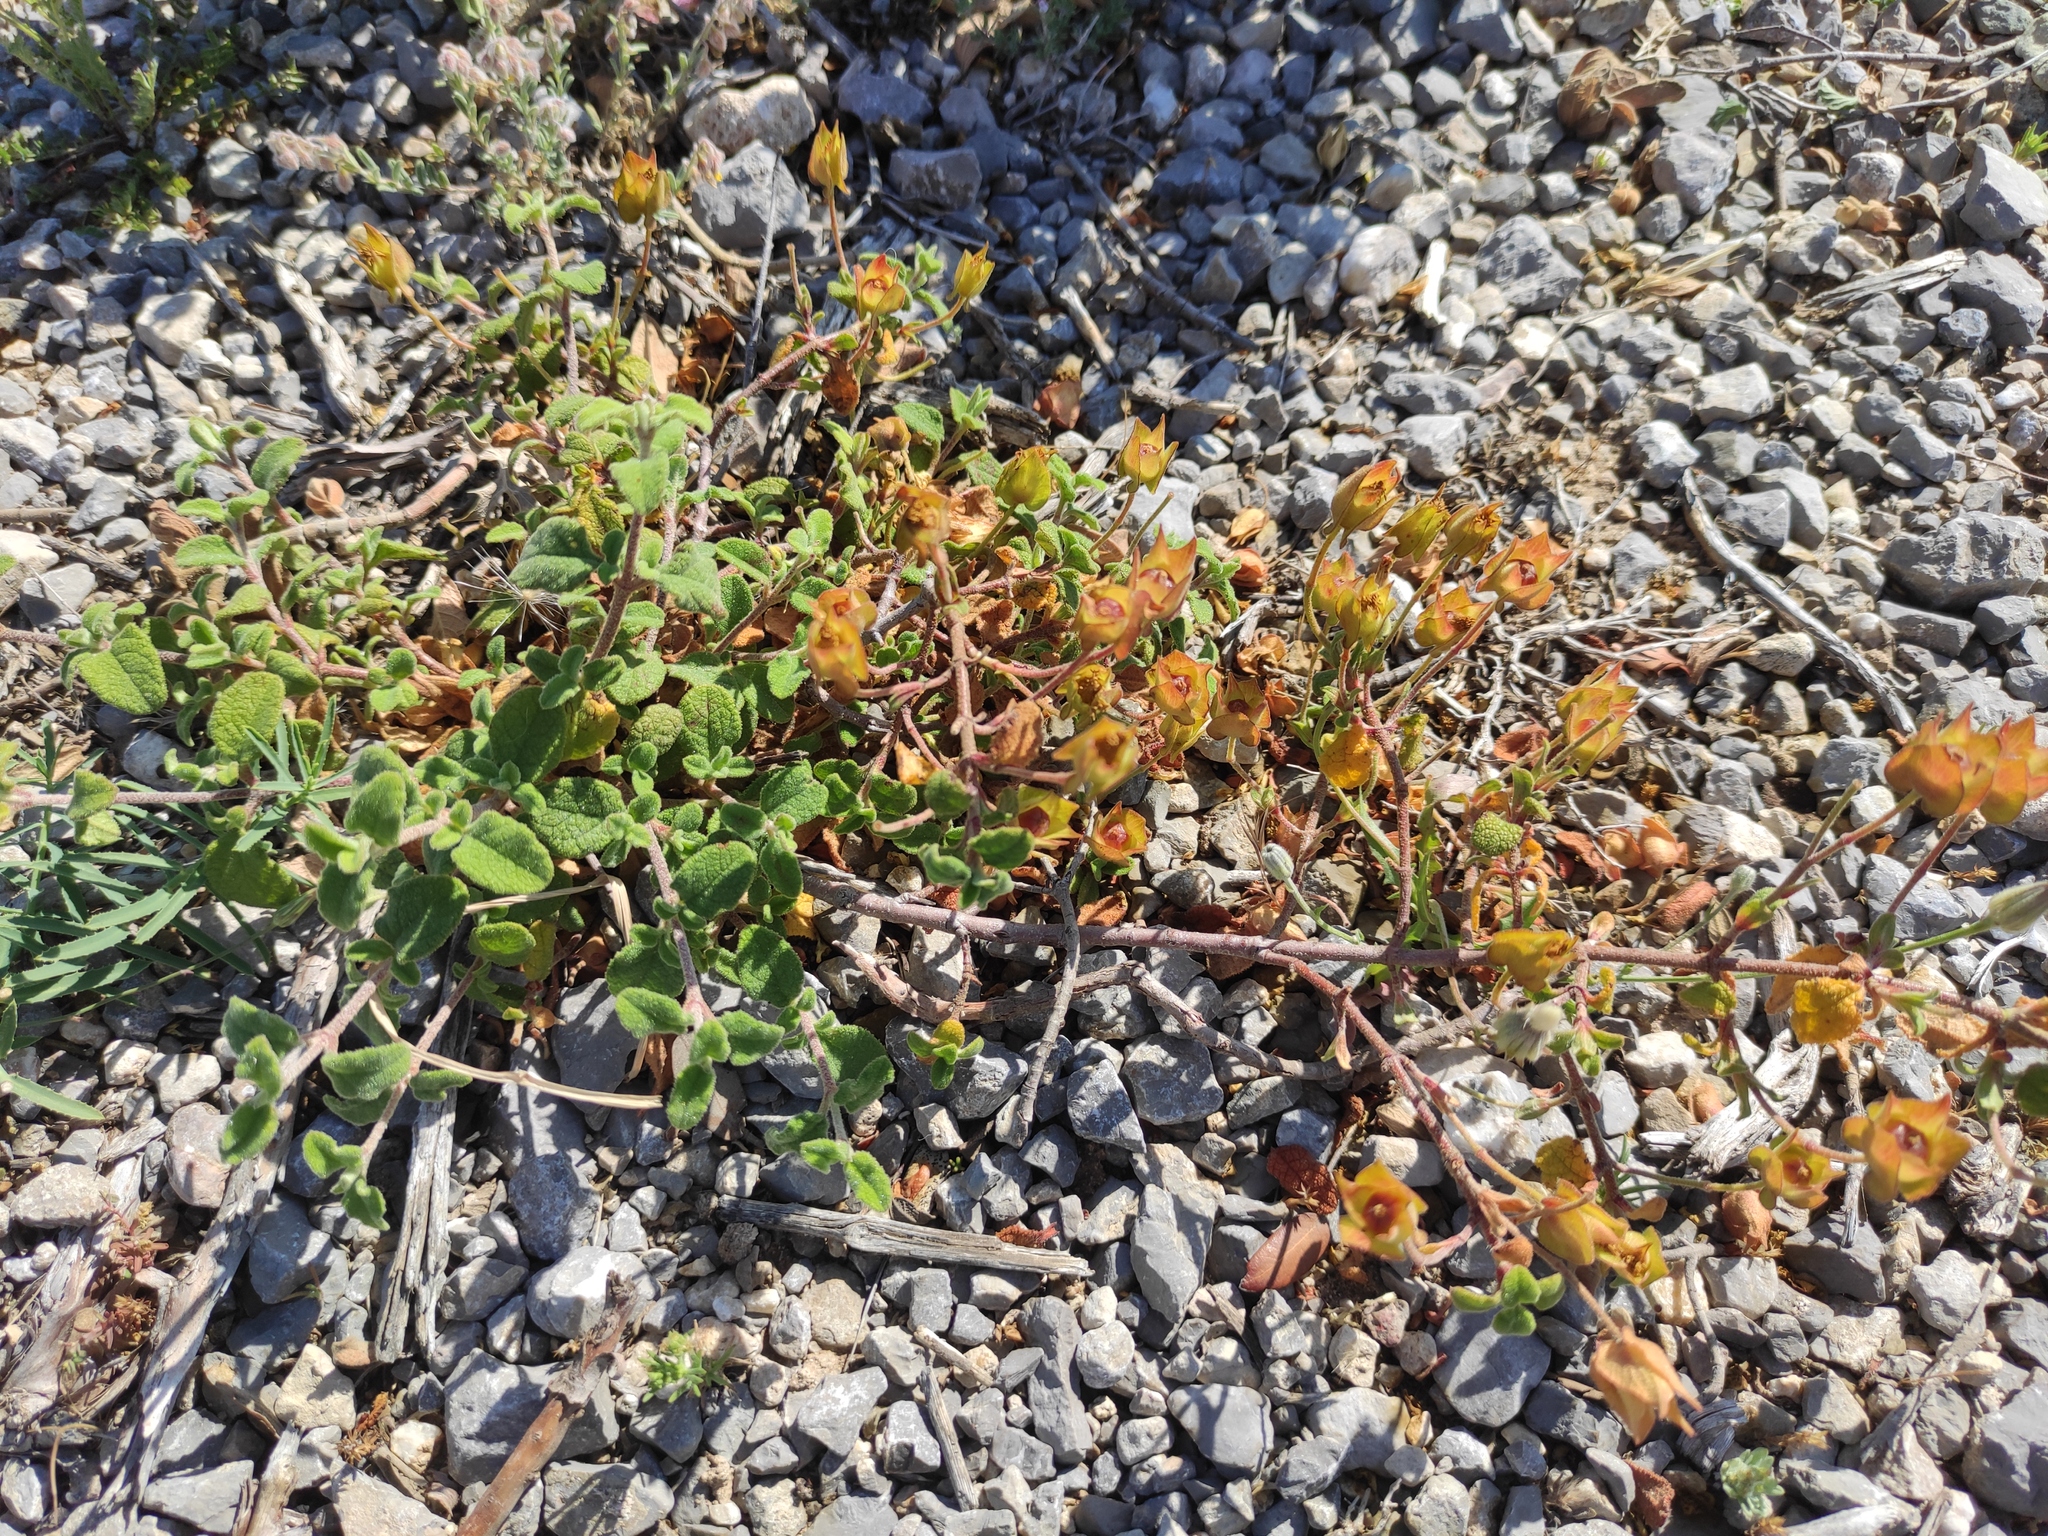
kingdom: Plantae
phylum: Tracheophyta
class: Magnoliopsida
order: Malvales
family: Cistaceae
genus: Cistus
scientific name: Cistus salviifolius
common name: Salvia cistus
